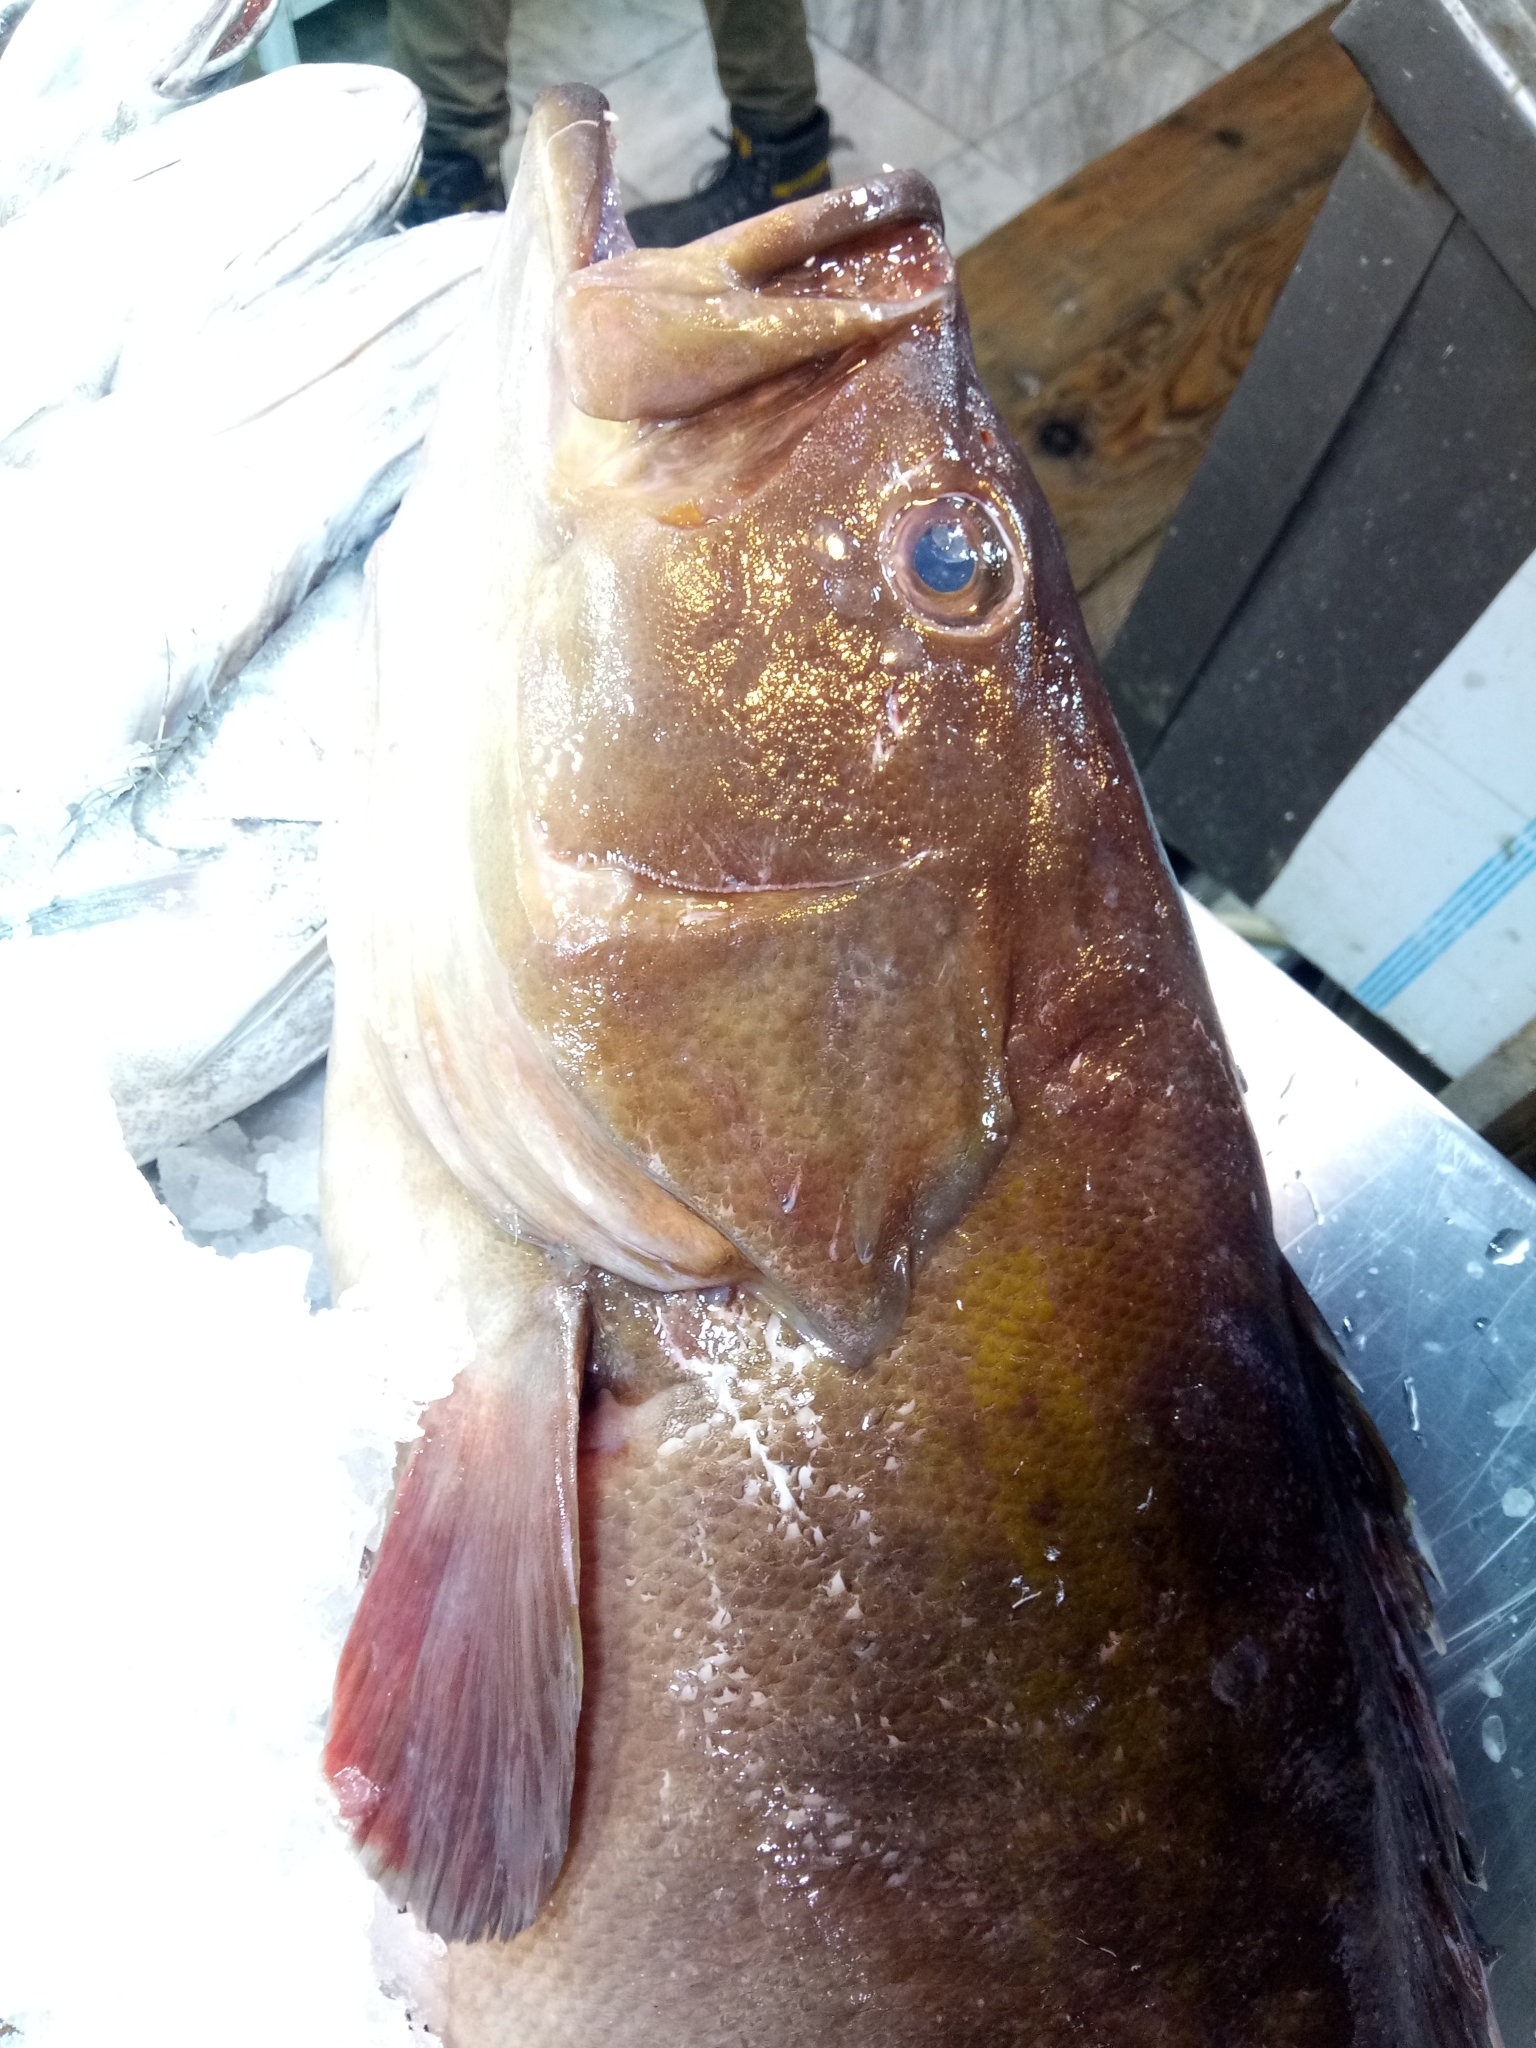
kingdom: Animalia
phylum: Chordata
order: Perciformes
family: Serranidae
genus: Epinephelus
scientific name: Epinephelus costae
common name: Goldblotch grouper
